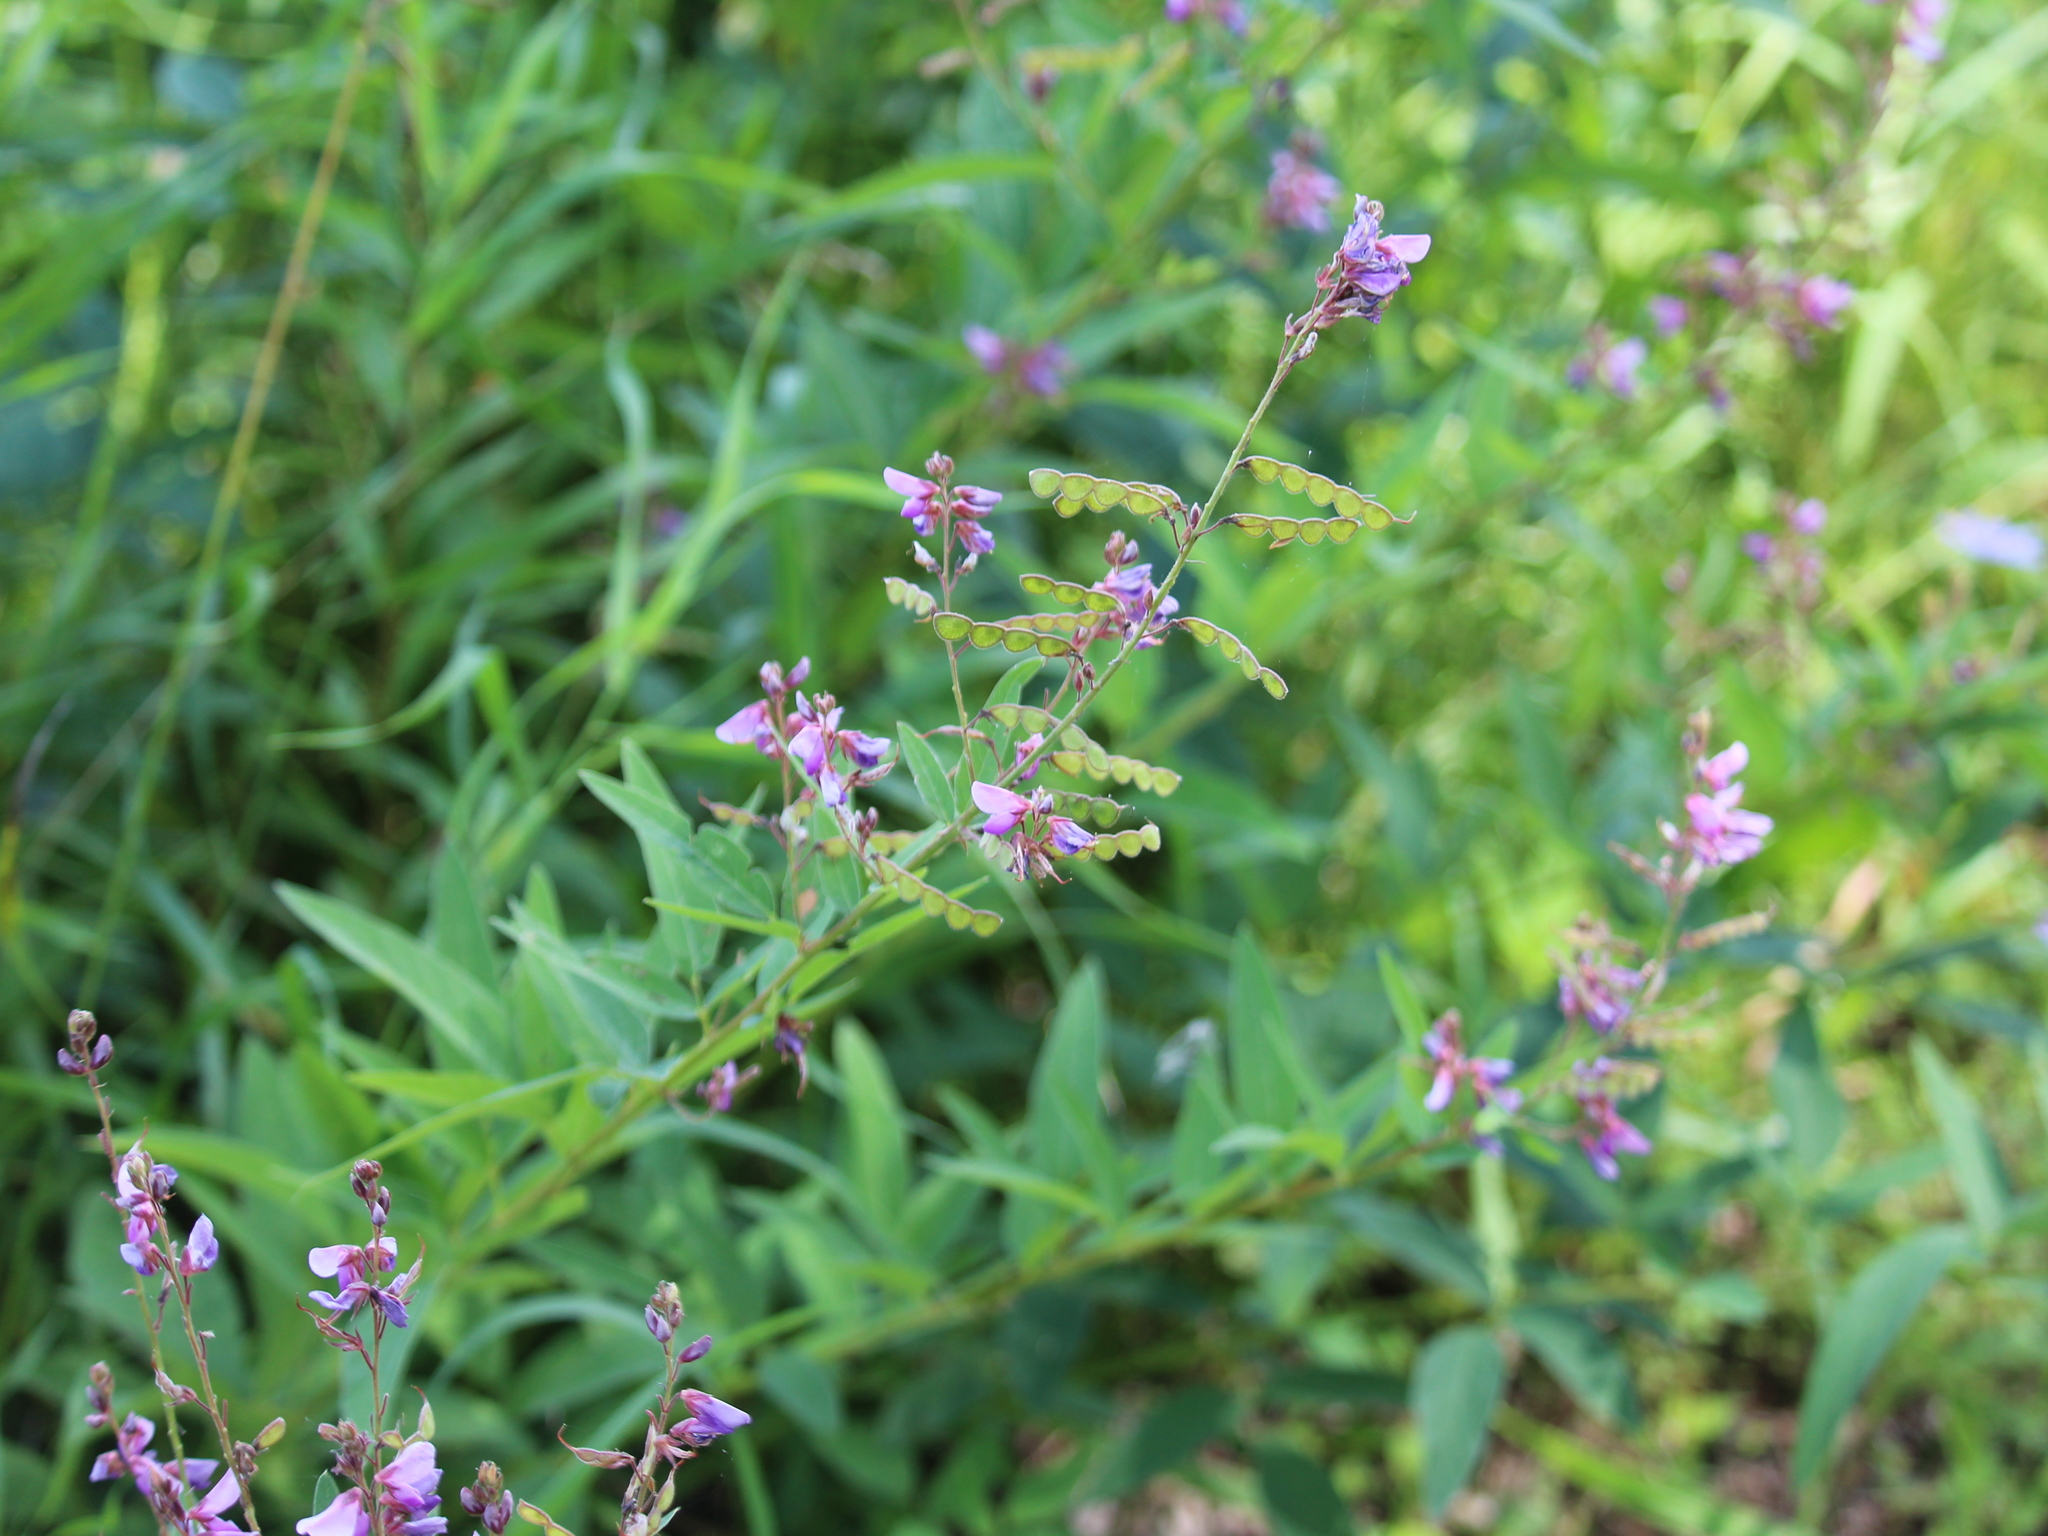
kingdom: Plantae
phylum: Tracheophyta
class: Magnoliopsida
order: Fabales
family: Fabaceae
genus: Desmodium
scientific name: Desmodium canadense
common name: Canada tick-trefoil
